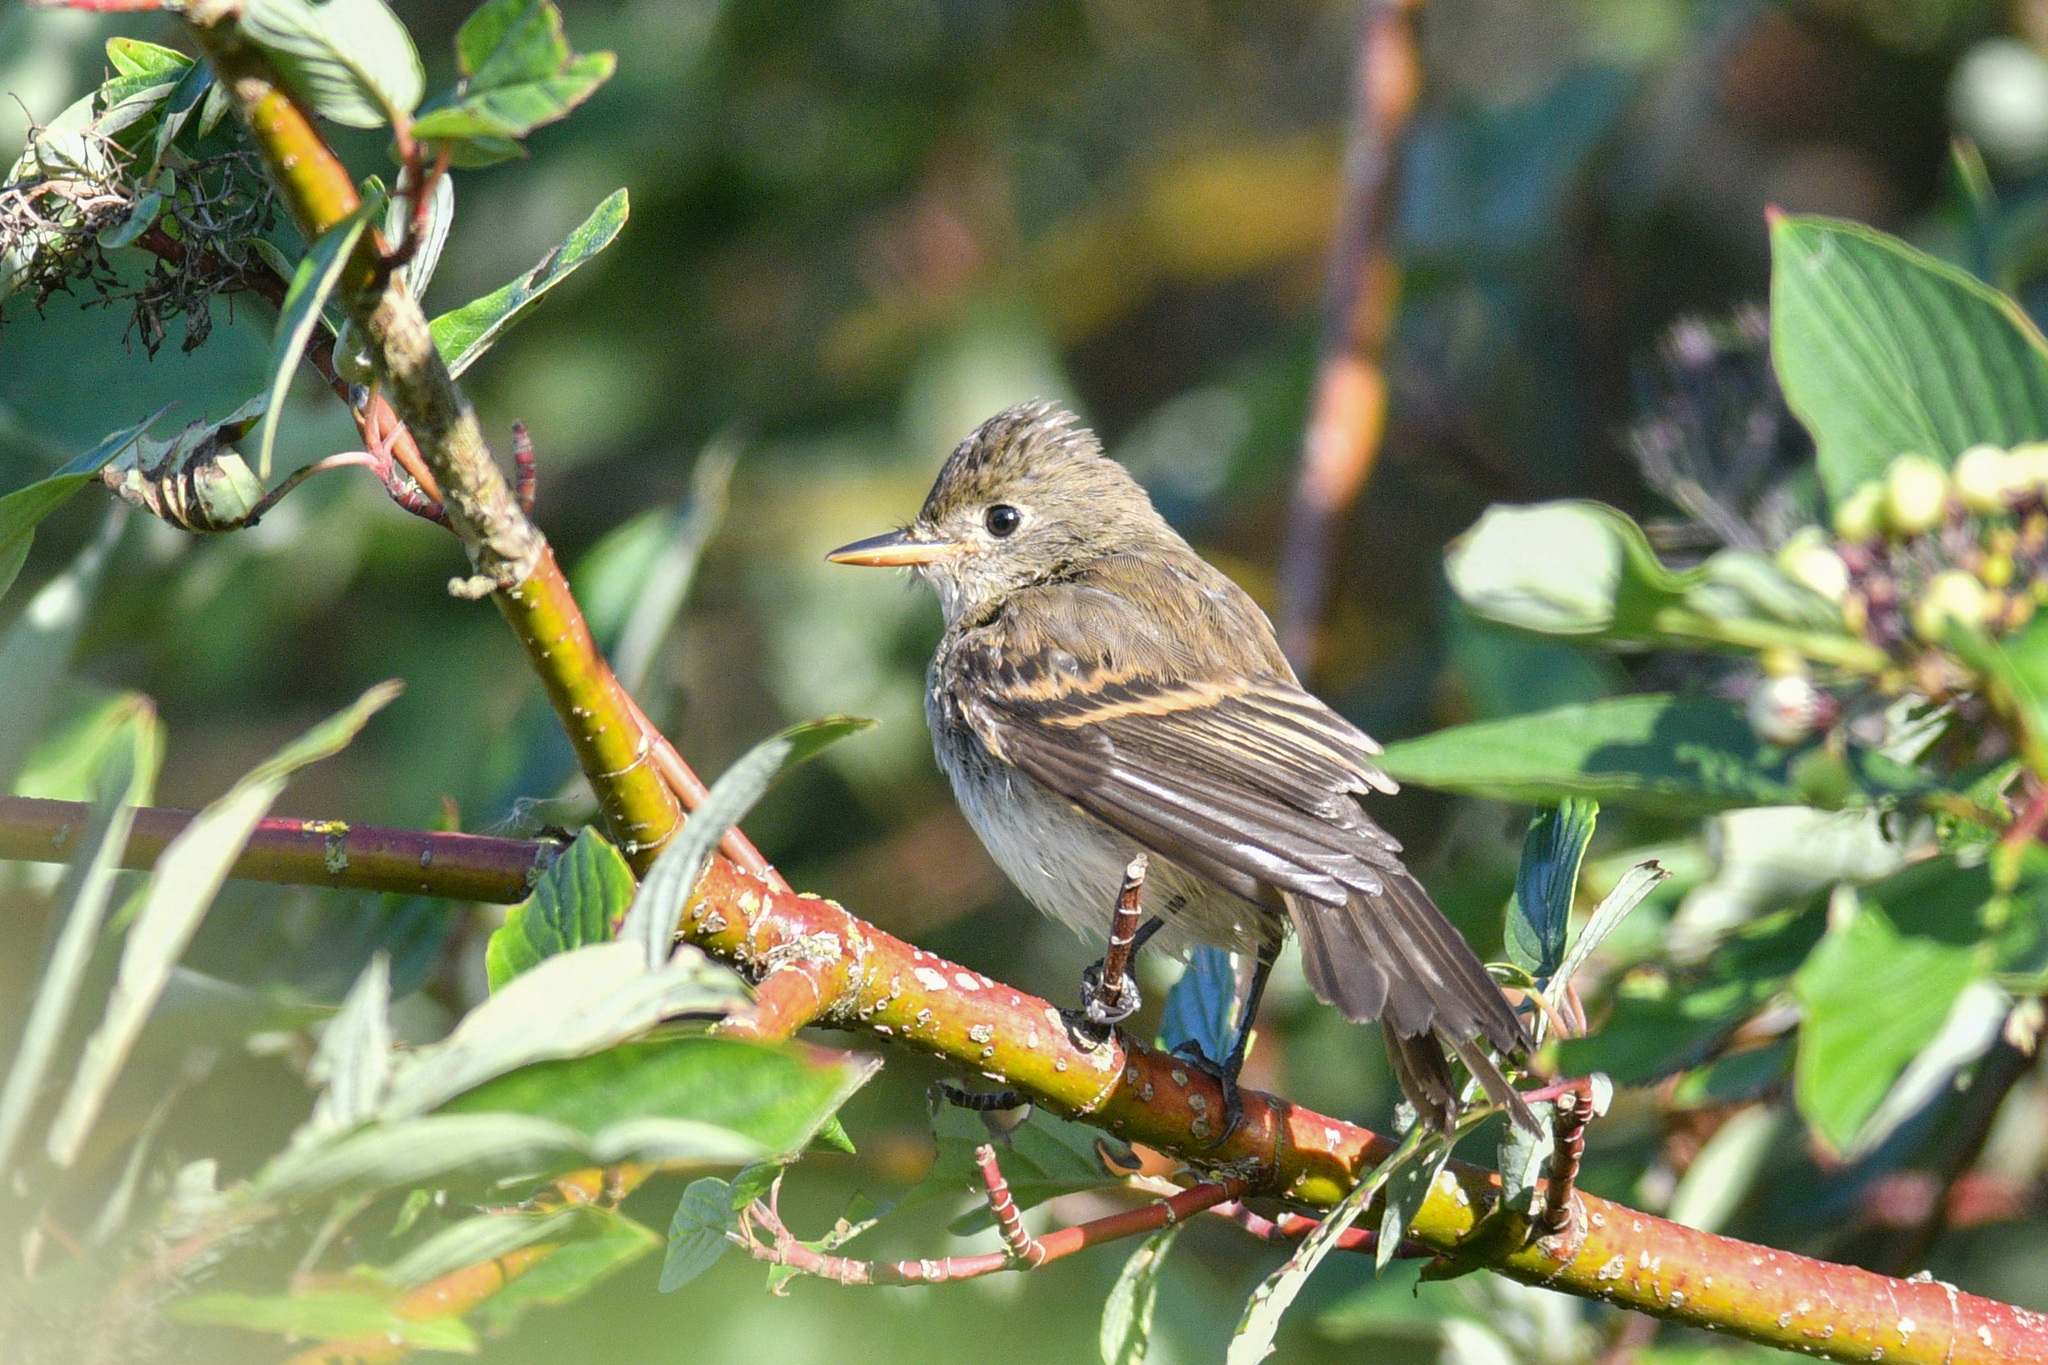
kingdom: Animalia
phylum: Chordata
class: Aves
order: Passeriformes
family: Tyrannidae
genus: Empidonax
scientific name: Empidonax traillii
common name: Willow flycatcher
